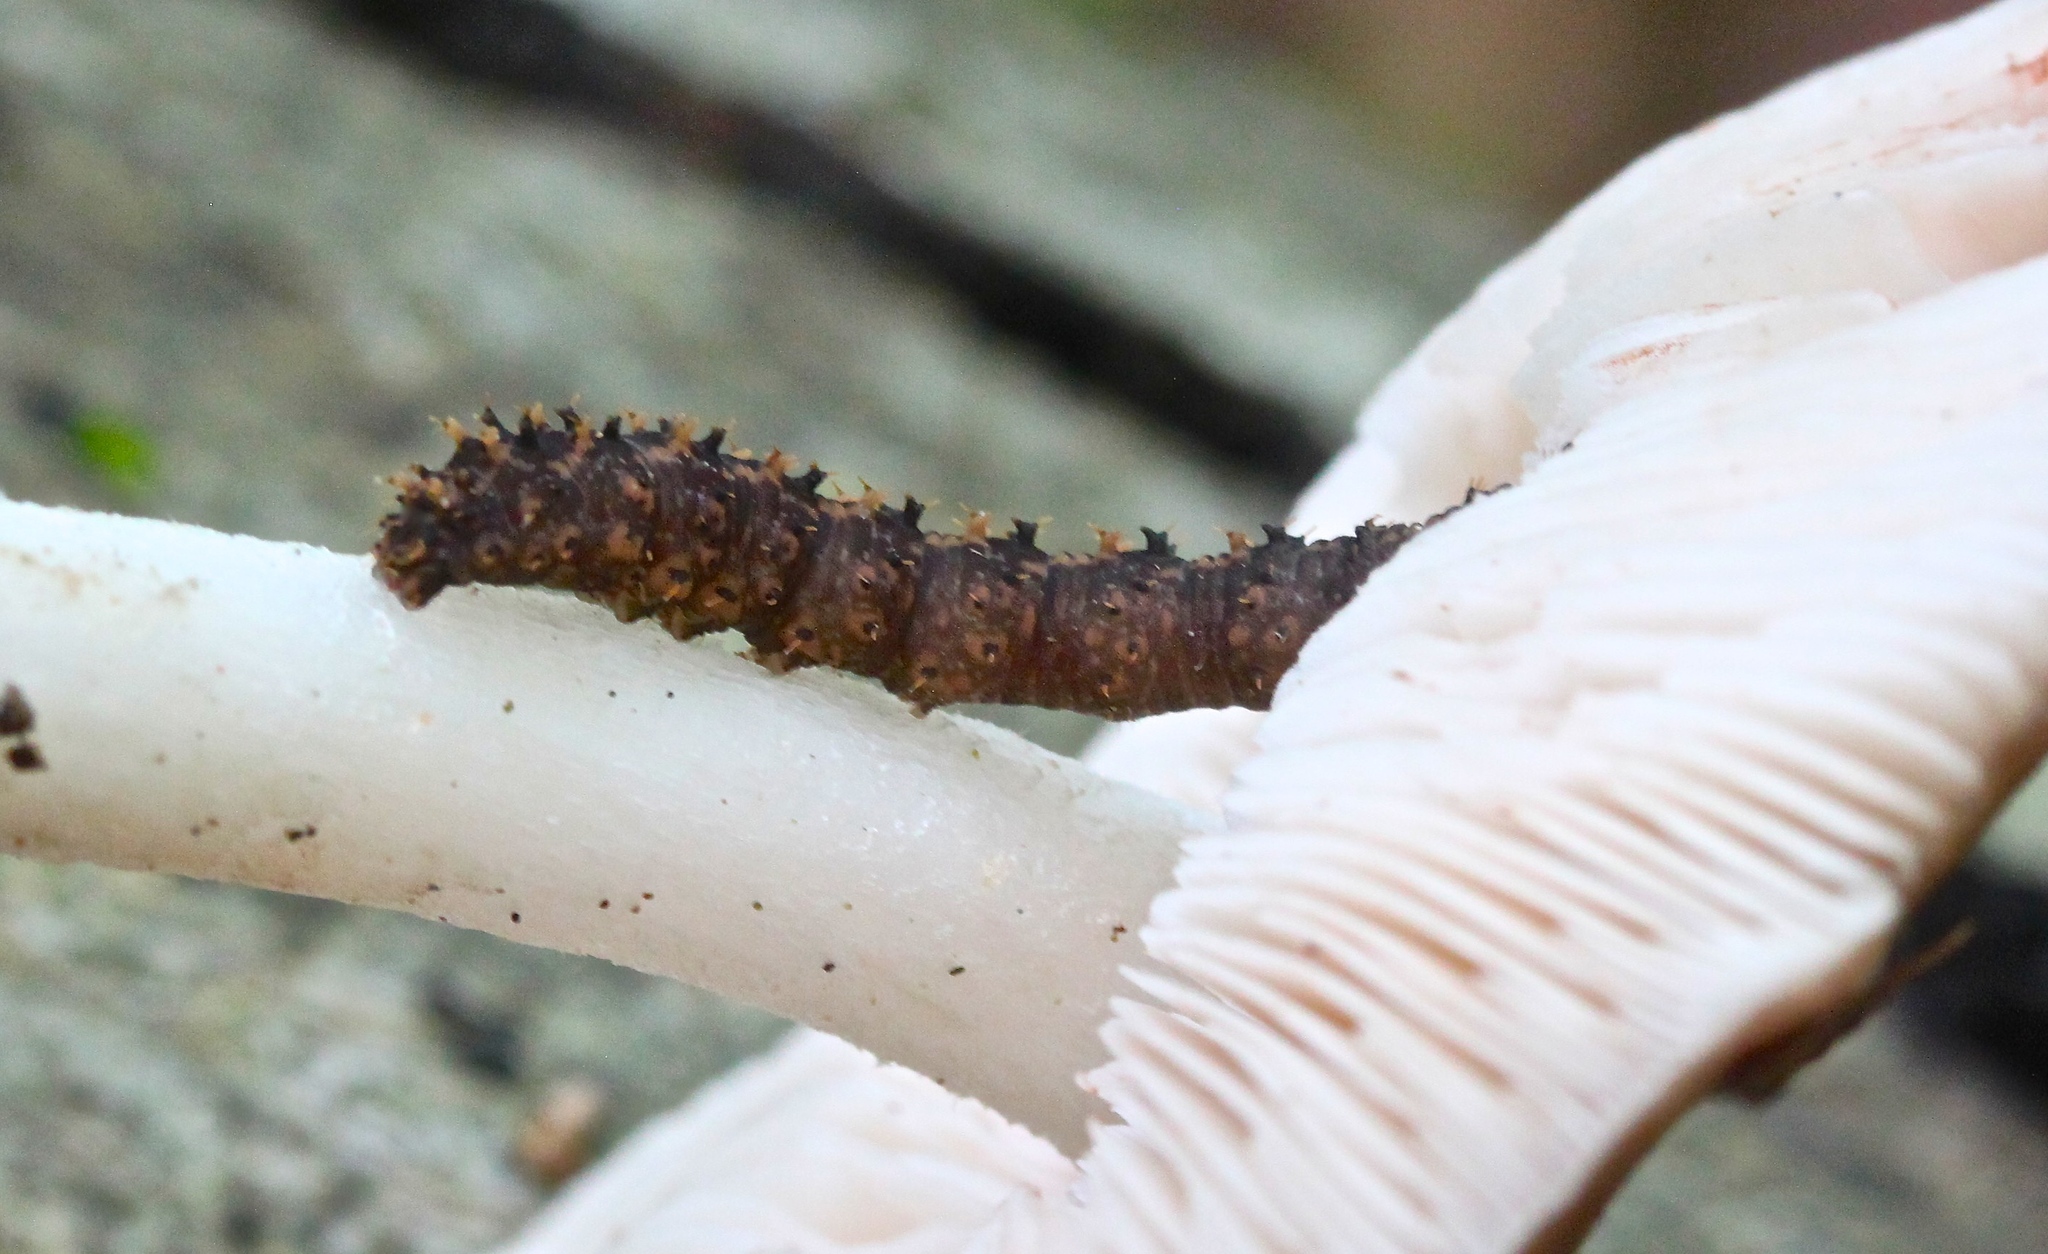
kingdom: Animalia
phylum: Arthropoda
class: Insecta
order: Lepidoptera
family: Erebidae
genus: Idia
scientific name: Idia lubricalis
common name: Twin-striped tabby
